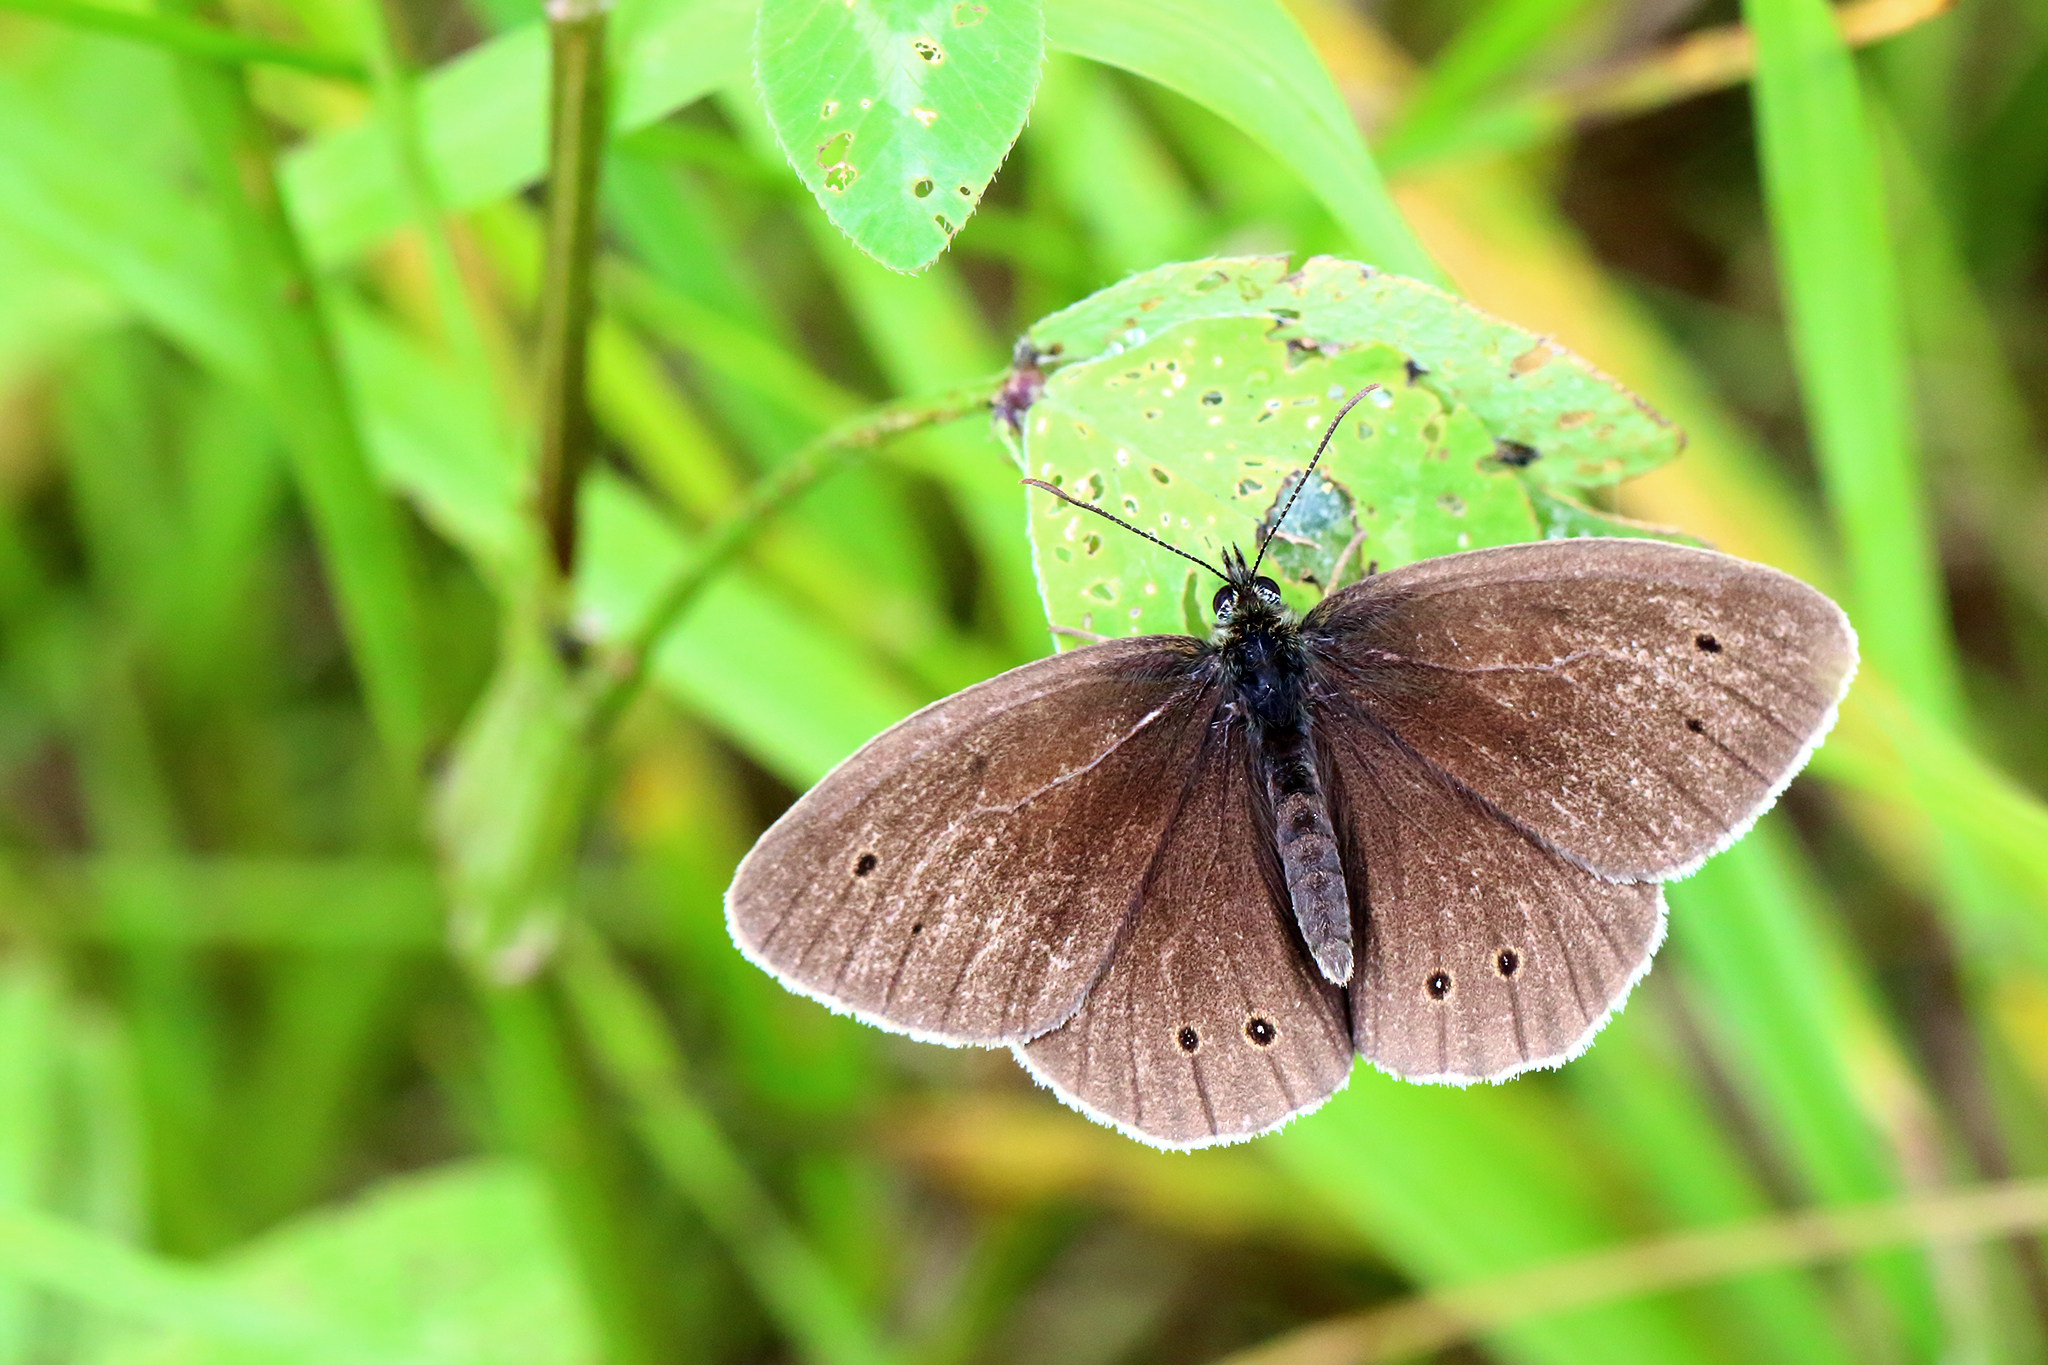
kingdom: Animalia
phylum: Arthropoda
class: Insecta
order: Lepidoptera
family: Nymphalidae
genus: Aphantopus
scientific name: Aphantopus hyperantus
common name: Ringlet
